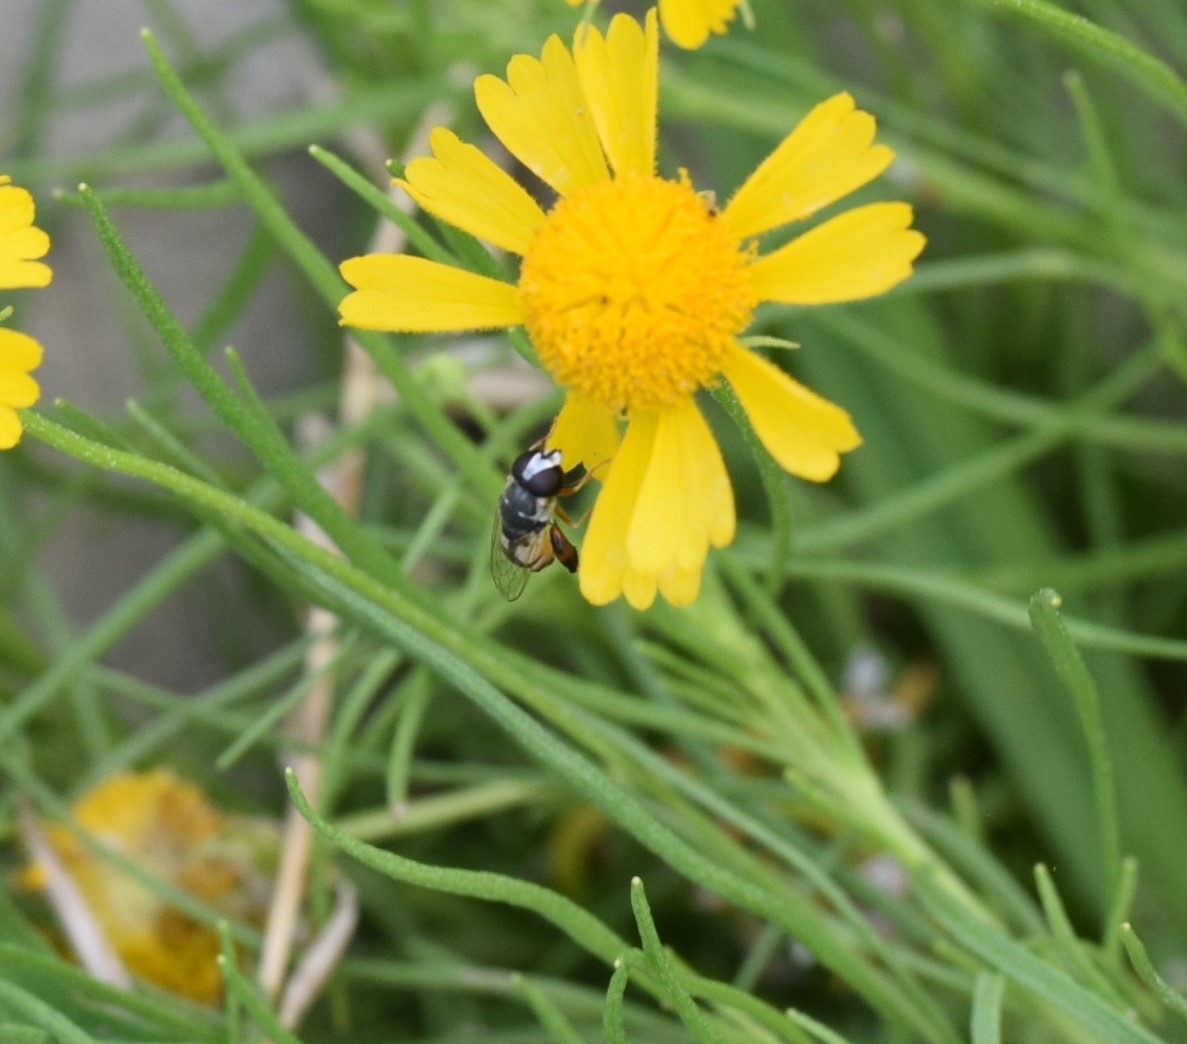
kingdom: Animalia
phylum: Arthropoda
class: Insecta
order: Diptera
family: Syrphidae
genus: Syritta
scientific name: Syritta flaviventris
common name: Syrphid fly
